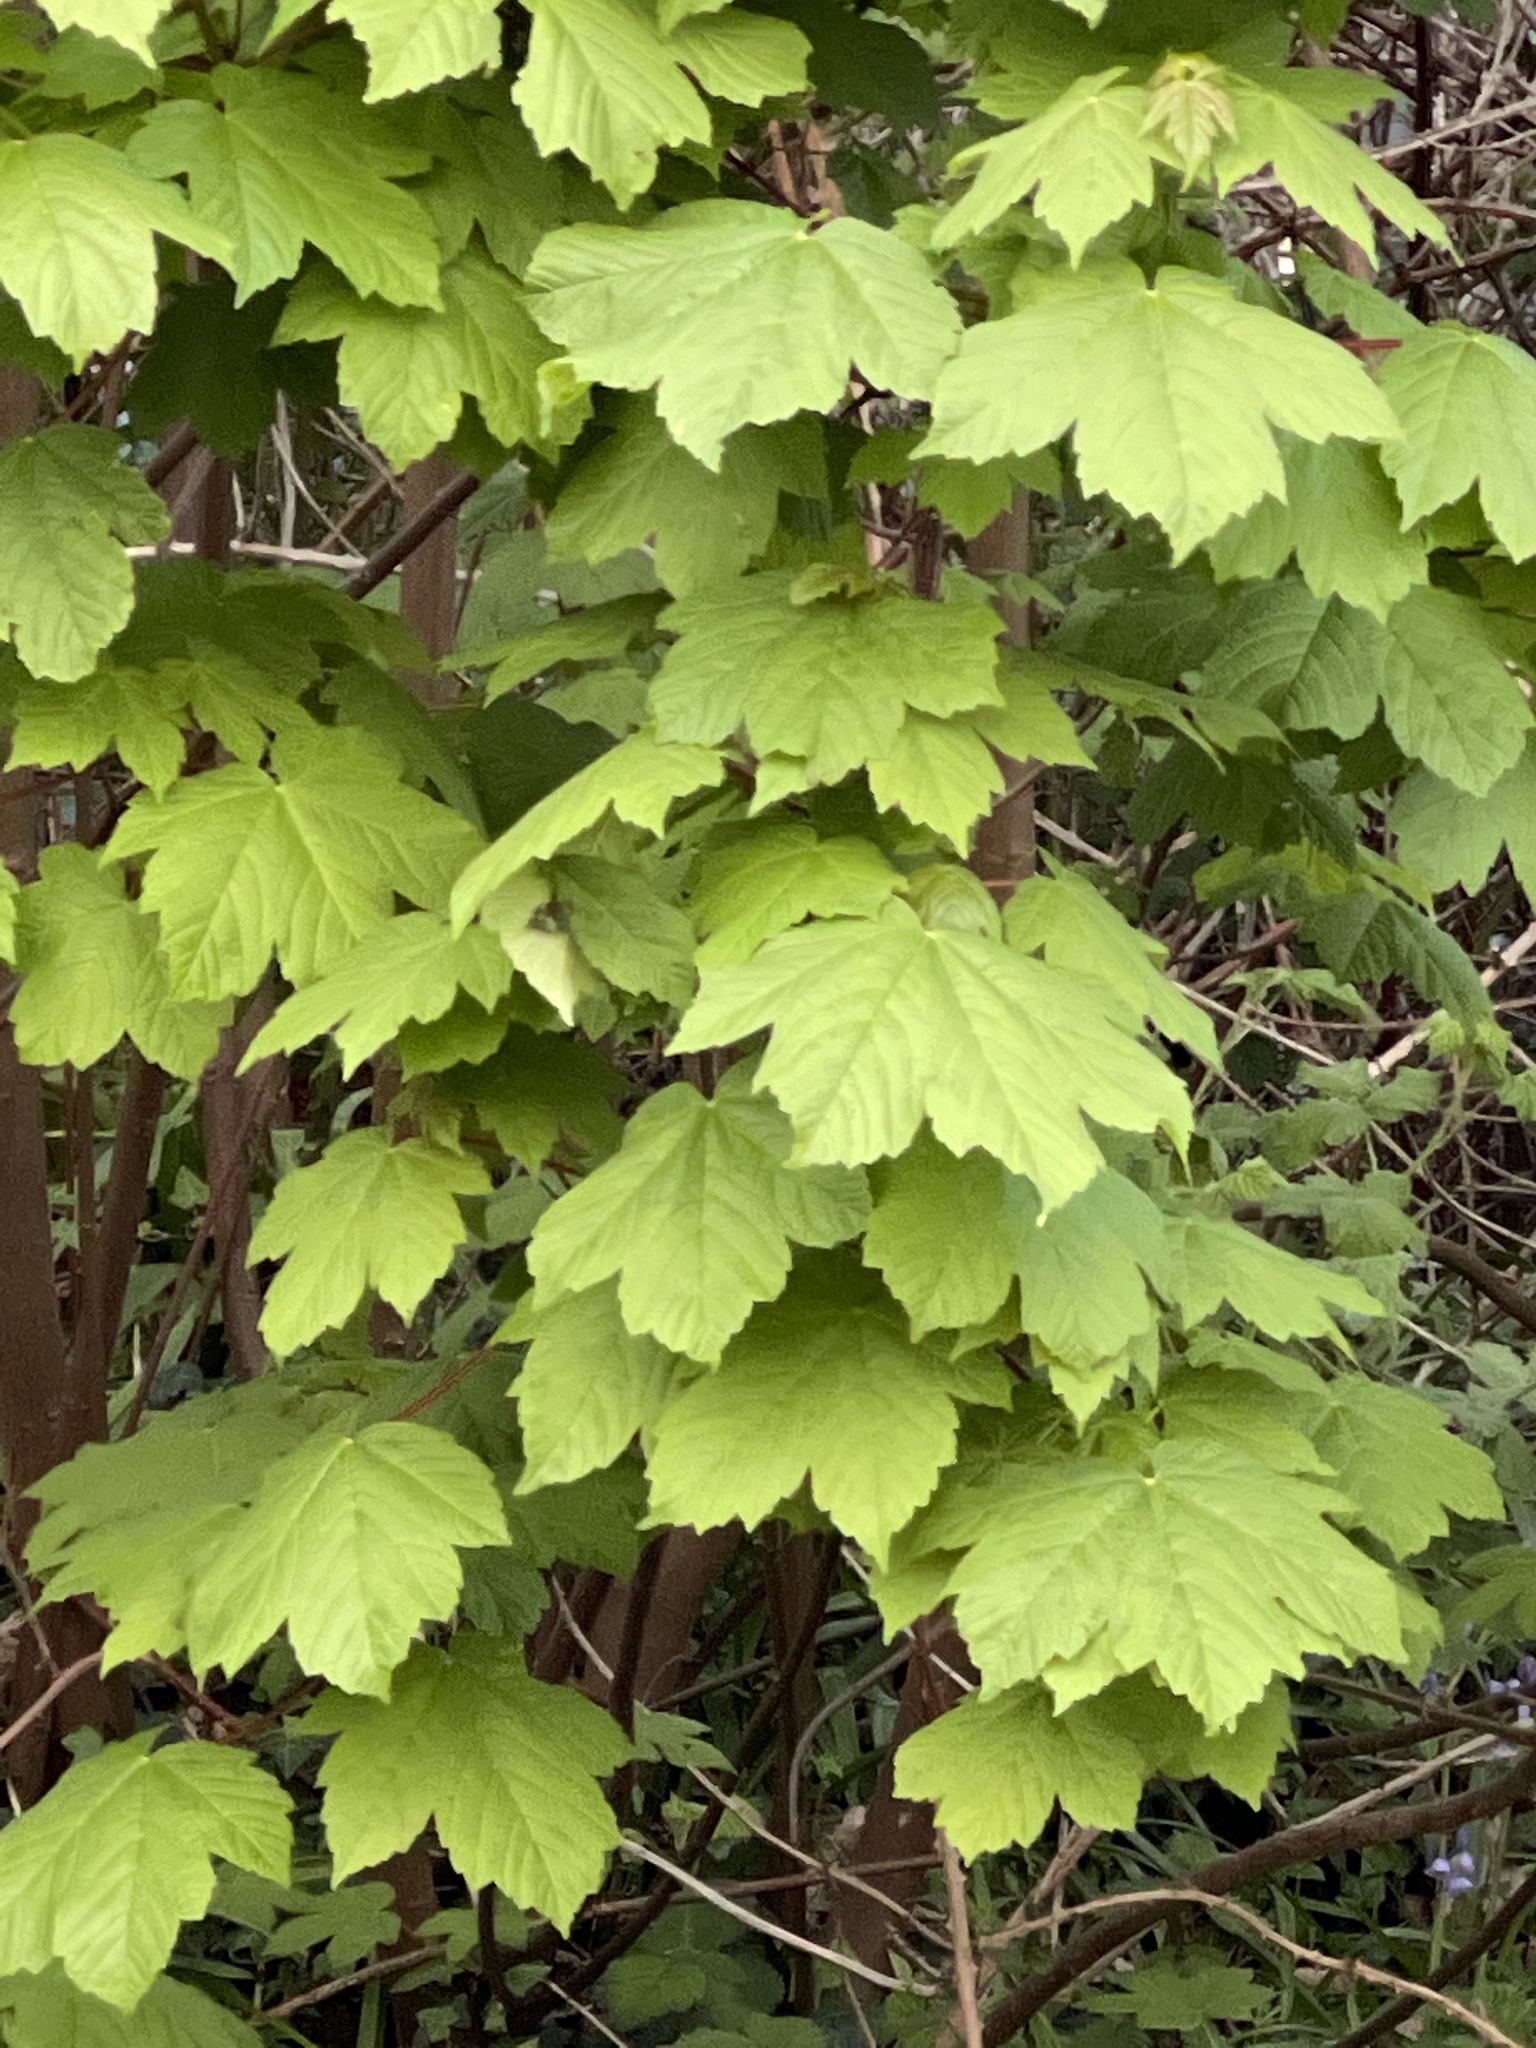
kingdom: Plantae
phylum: Tracheophyta
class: Magnoliopsida
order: Sapindales
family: Sapindaceae
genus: Acer
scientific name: Acer pseudoplatanus
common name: Sycamore
